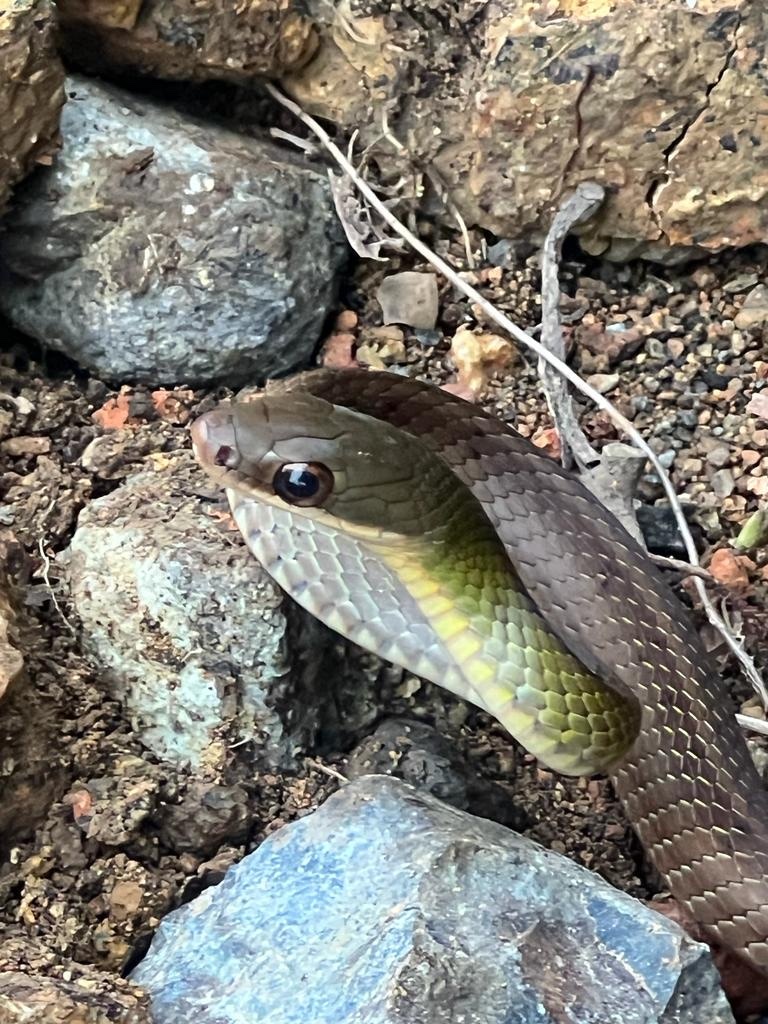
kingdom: Animalia
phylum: Chordata
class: Squamata
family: Colubridae
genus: Dendrophidion
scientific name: Dendrophidion brunneum
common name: Günther's forest racer
